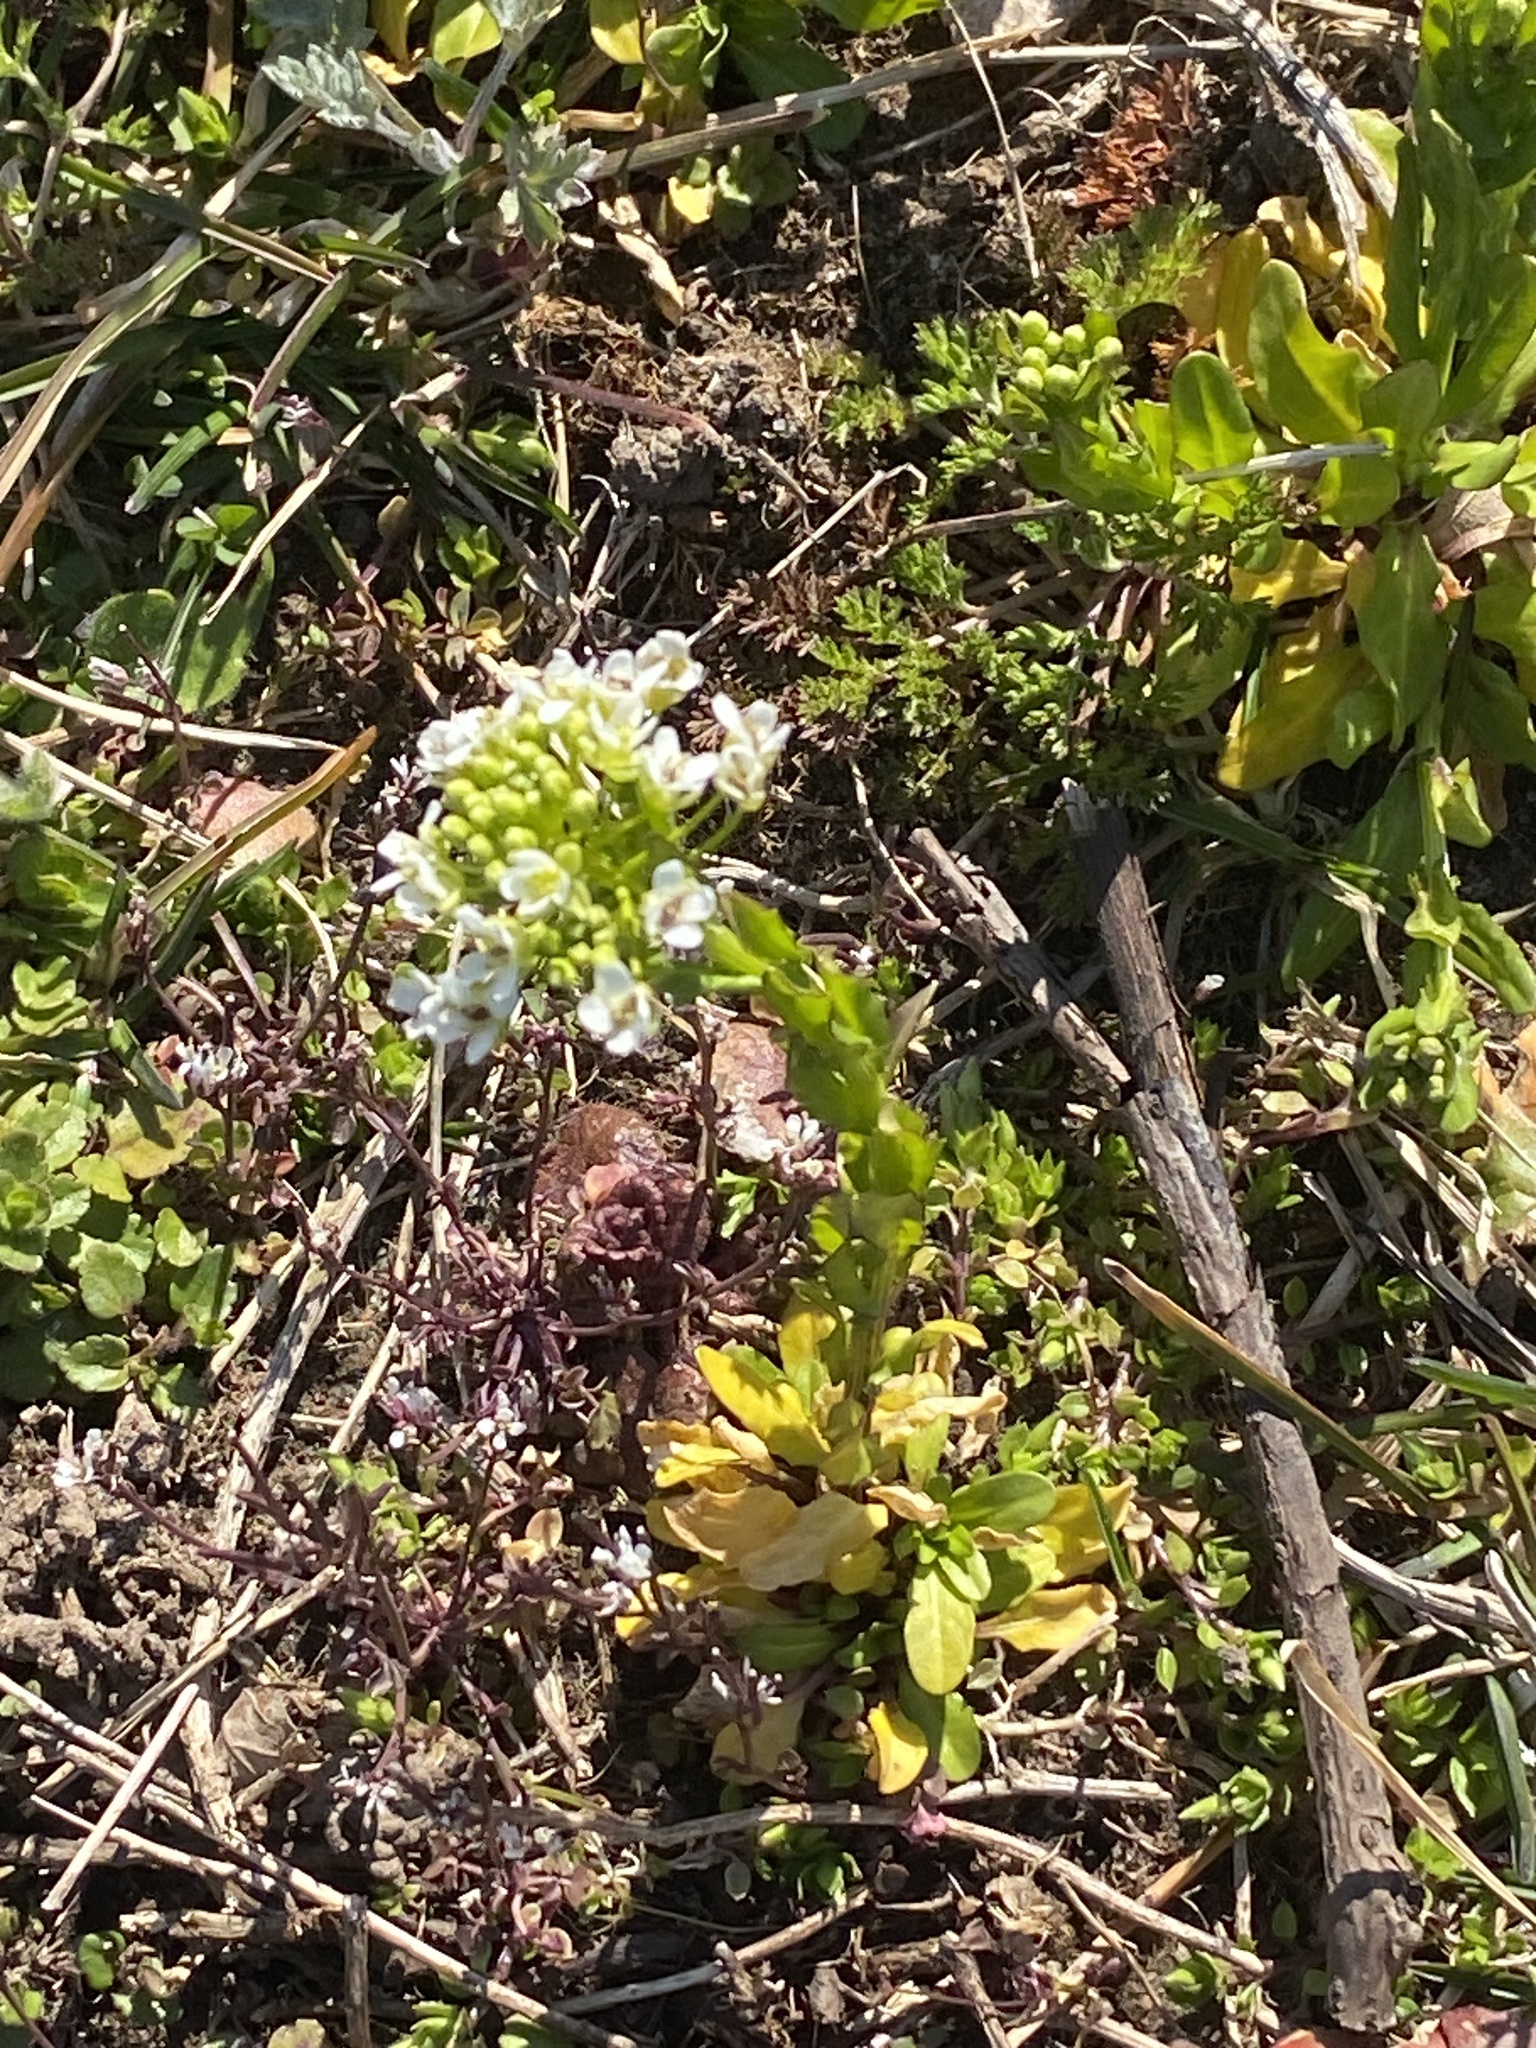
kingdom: Plantae
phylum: Tracheophyta
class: Magnoliopsida
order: Brassicales
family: Brassicaceae
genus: Thlaspi
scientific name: Thlaspi arvense
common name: Field pennycress
